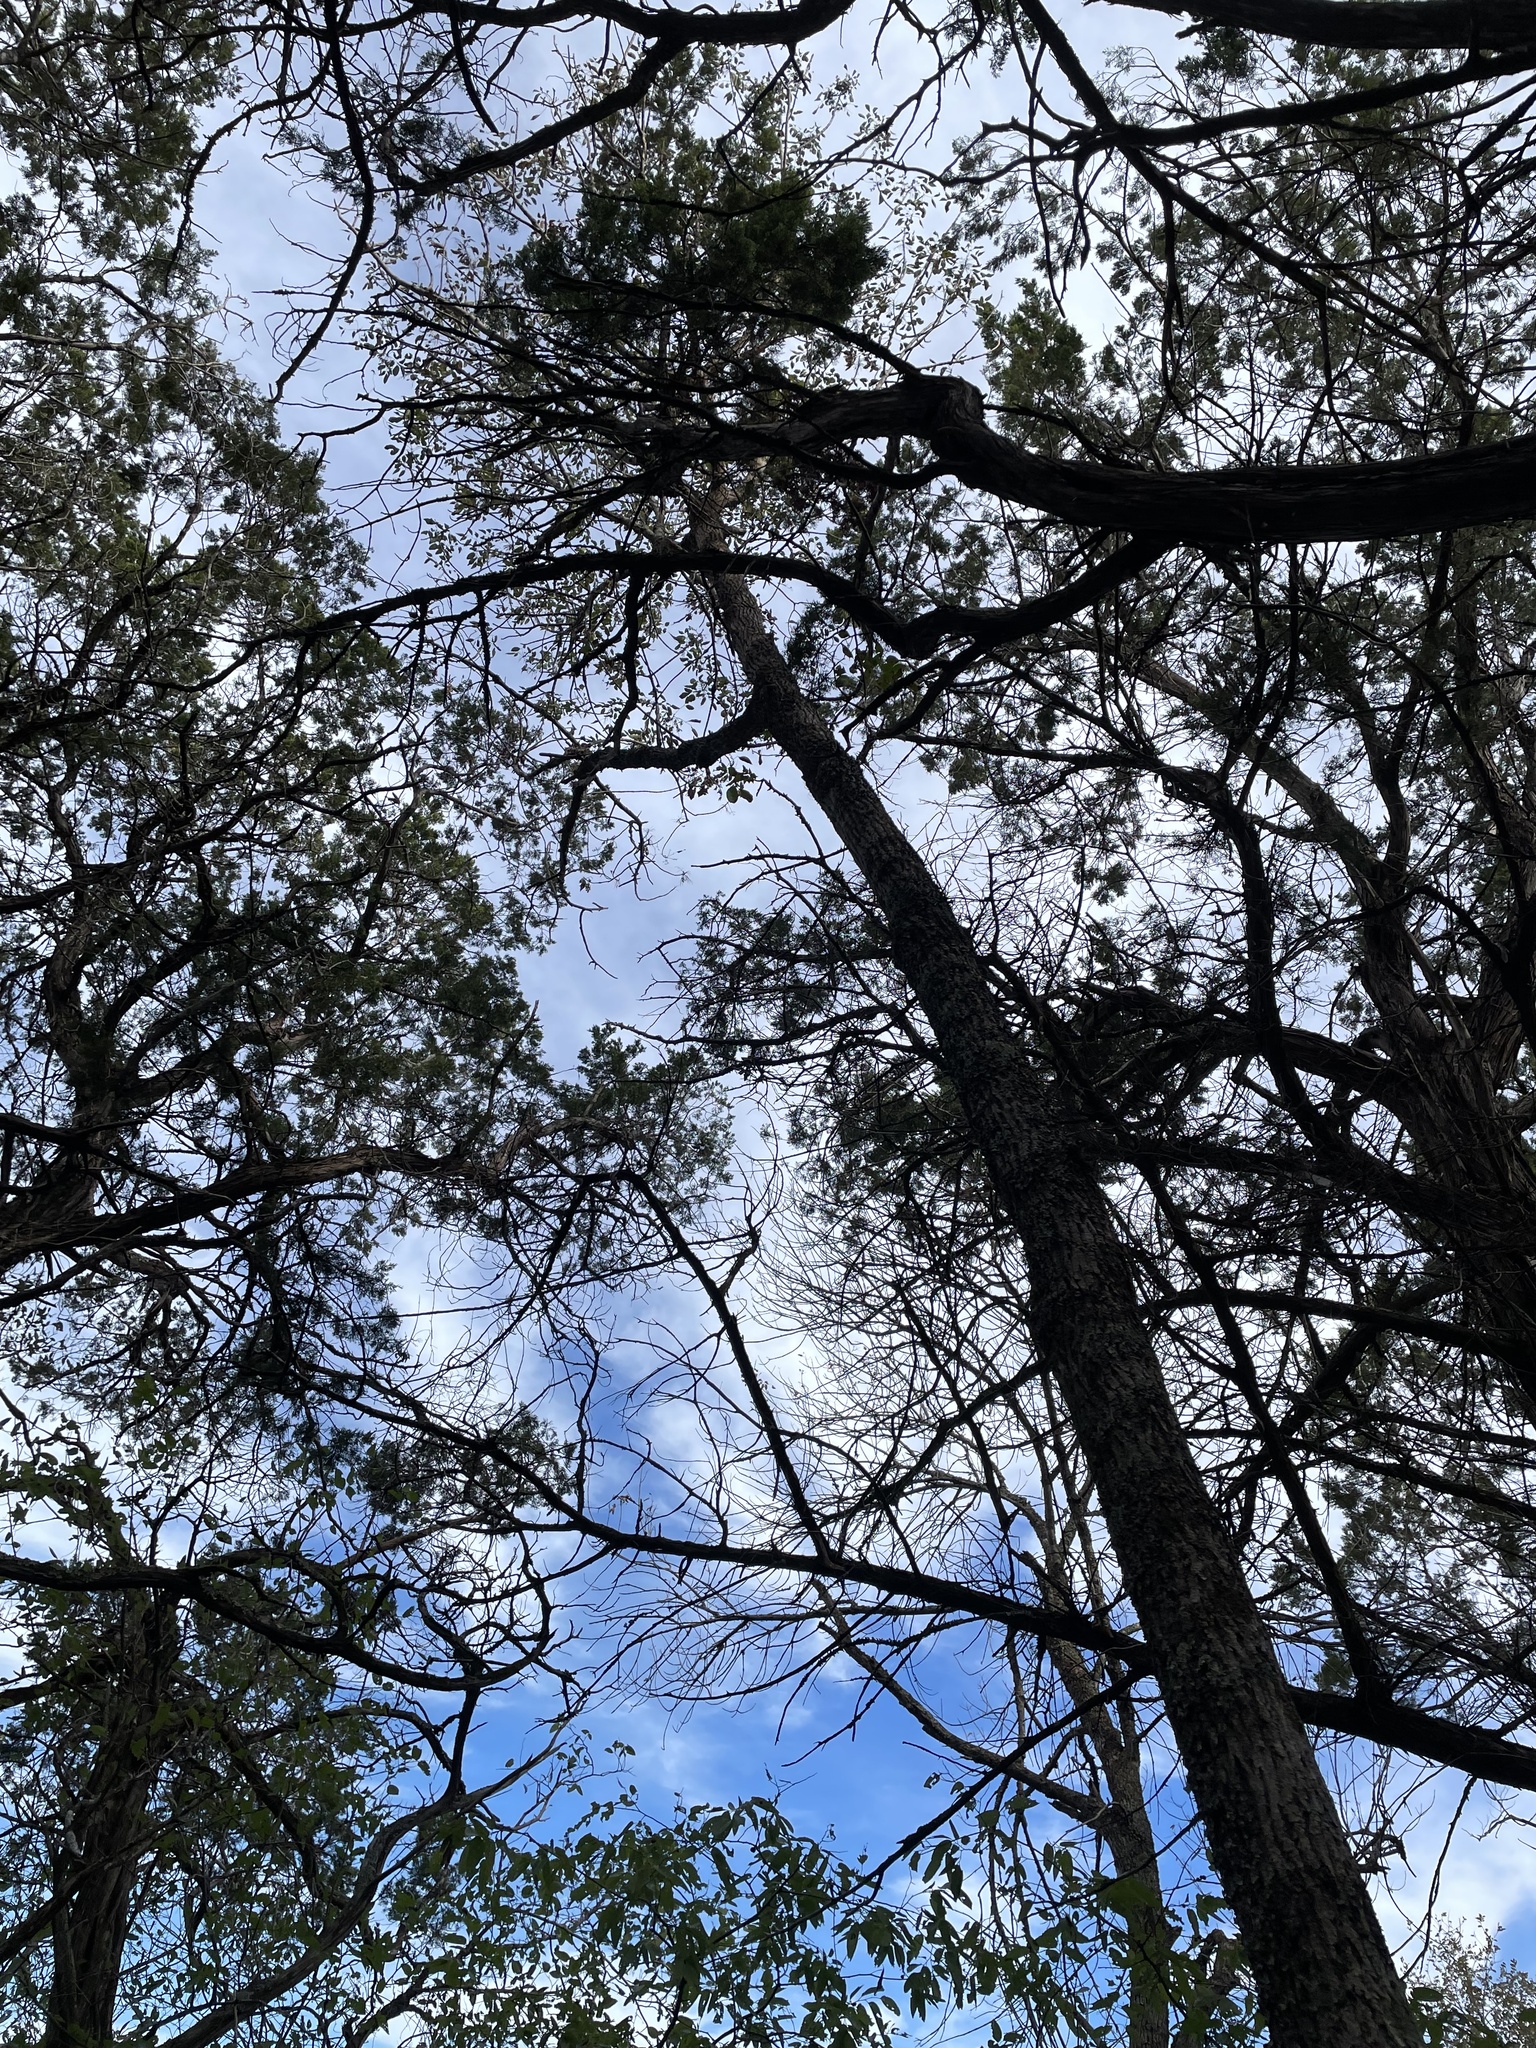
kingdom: Plantae
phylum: Tracheophyta
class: Magnoliopsida
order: Lamiales
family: Oleaceae
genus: Fraxinus
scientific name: Fraxinus albicans
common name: Texas ash
